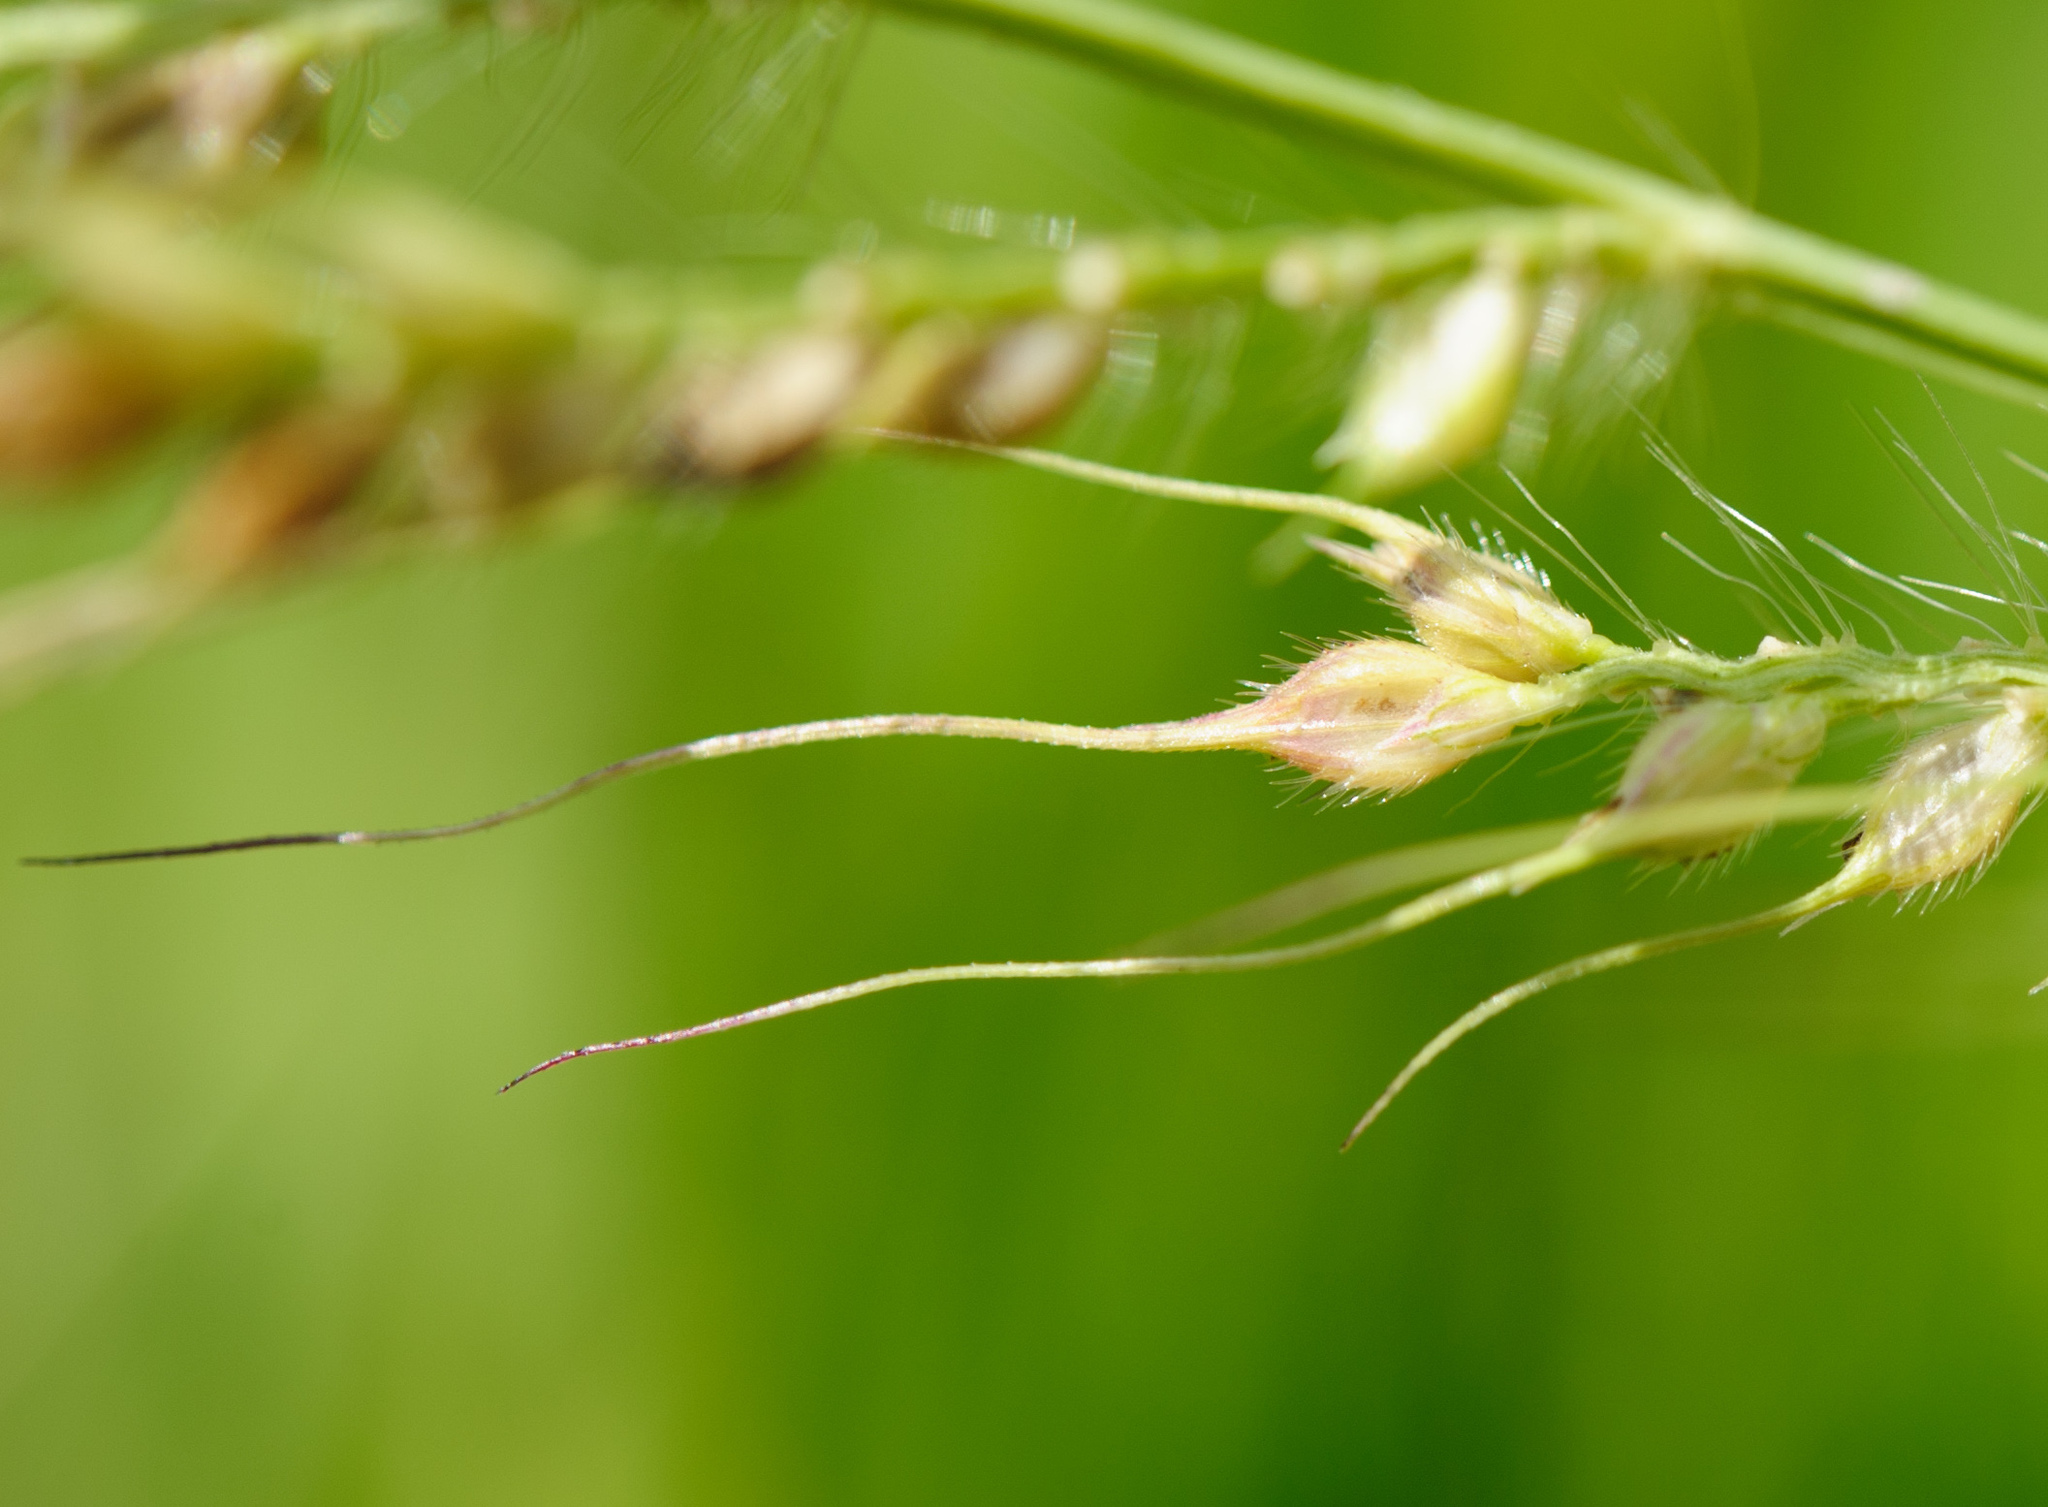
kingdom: Plantae
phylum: Tracheophyta
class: Liliopsida
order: Poales
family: Poaceae
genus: Echinochloa
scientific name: Echinochloa crus-galli
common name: Cockspur
